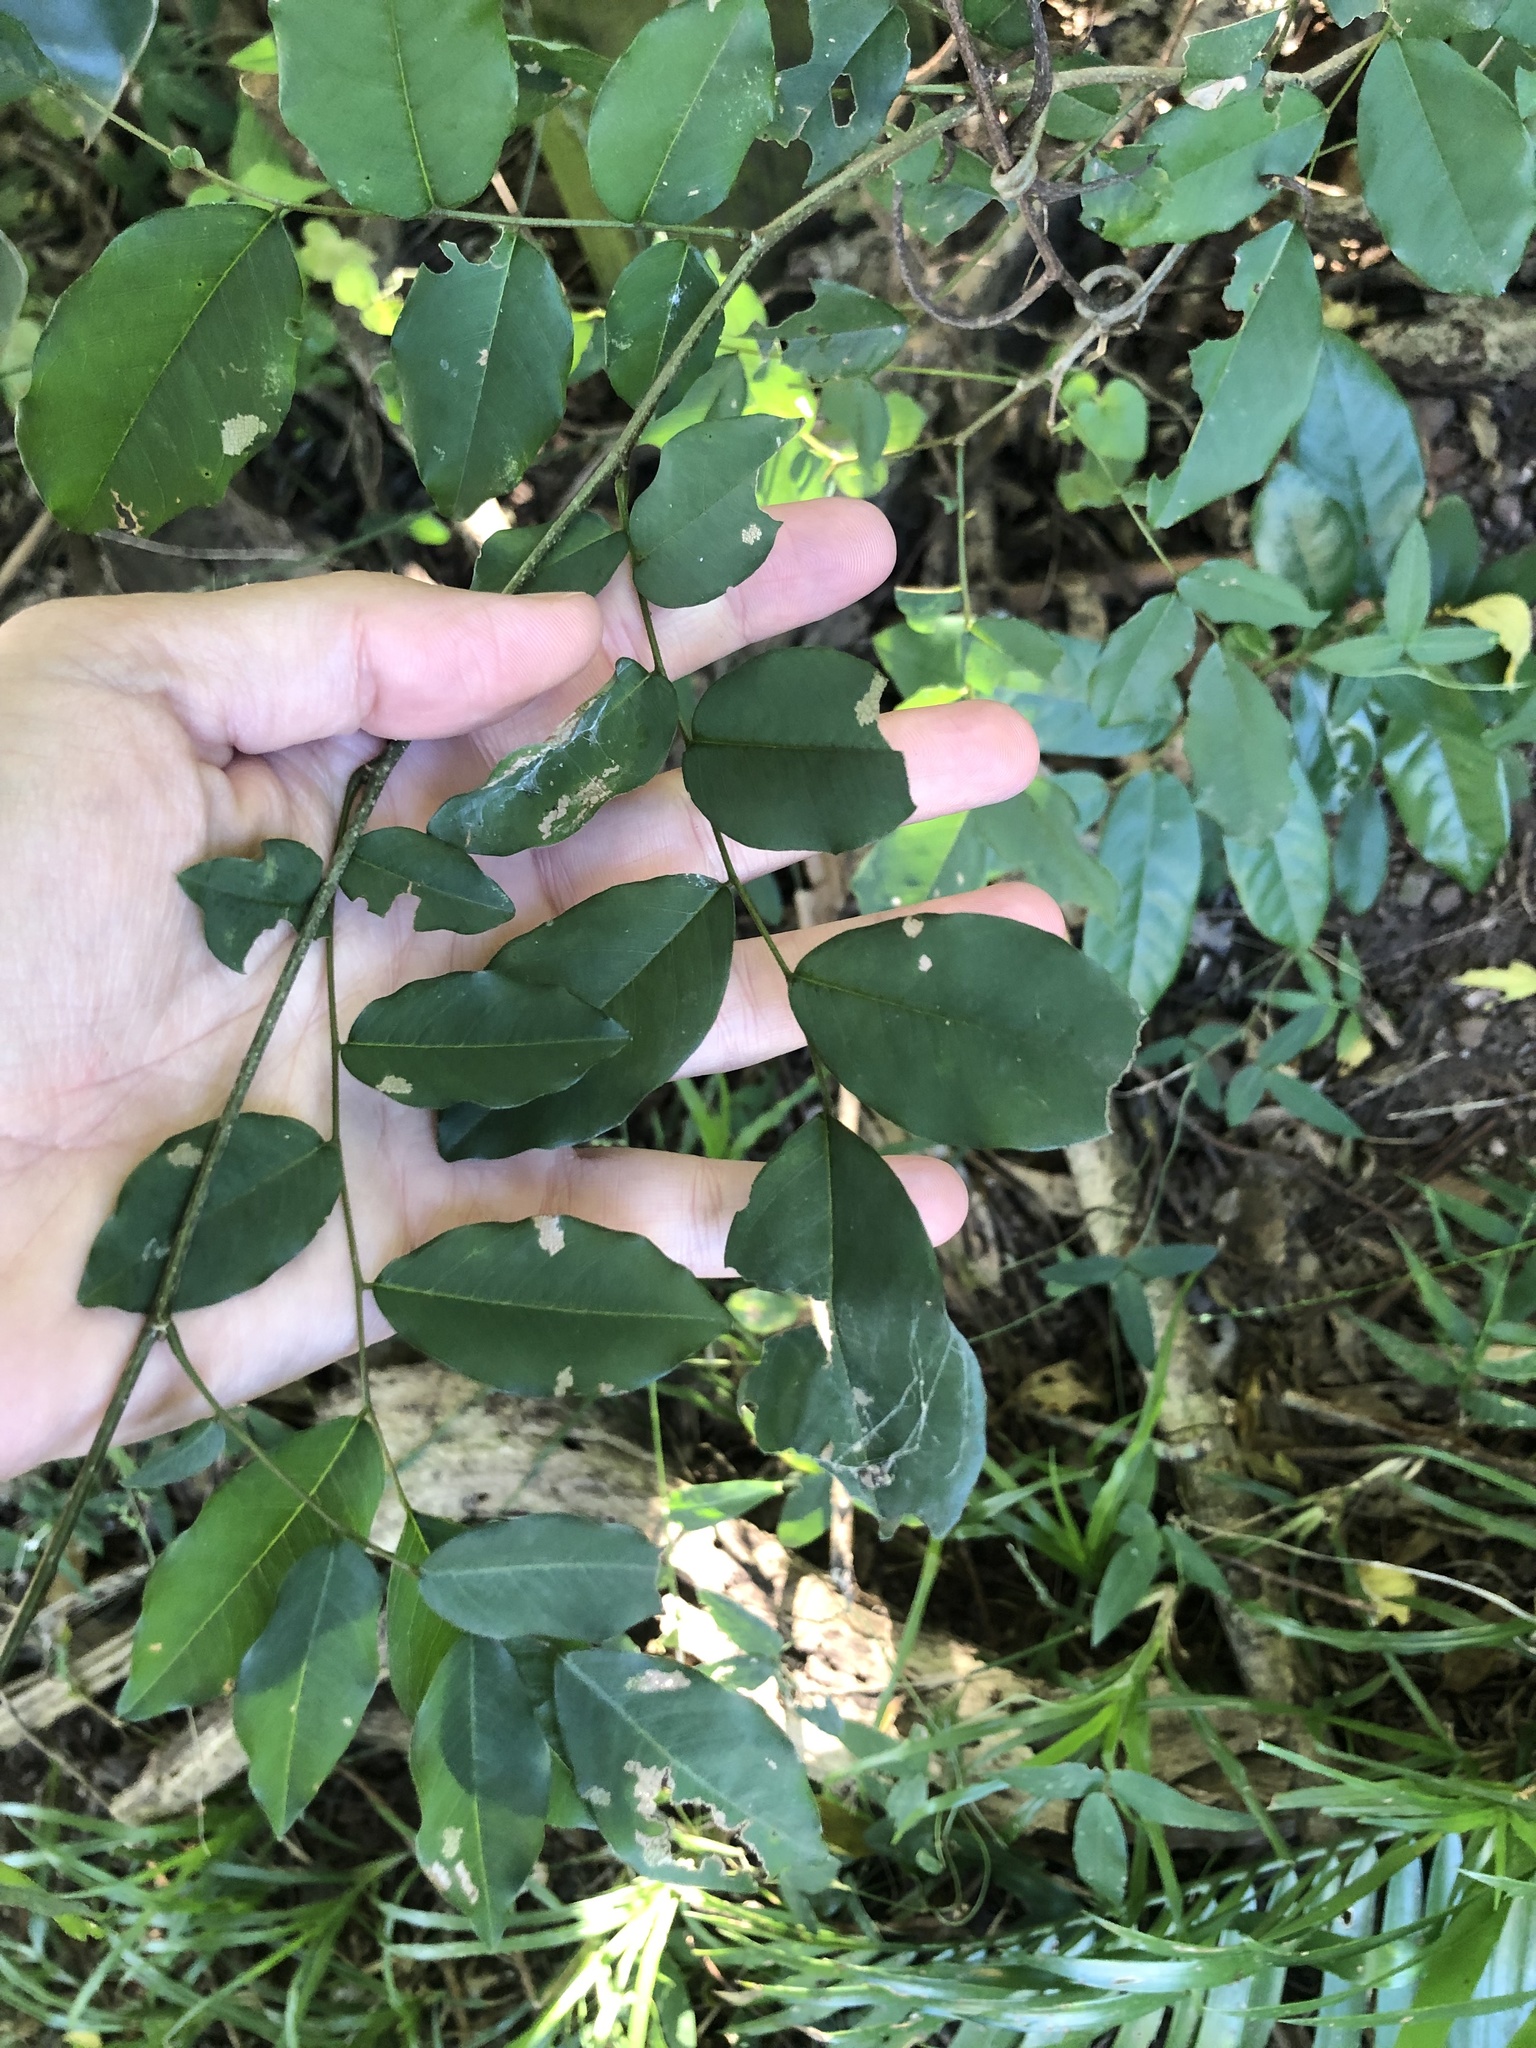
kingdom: Plantae
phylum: Tracheophyta
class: Magnoliopsida
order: Fabales
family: Fabaceae
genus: Dalbergia
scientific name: Dalbergia obovata
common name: Climbing flat-bean
